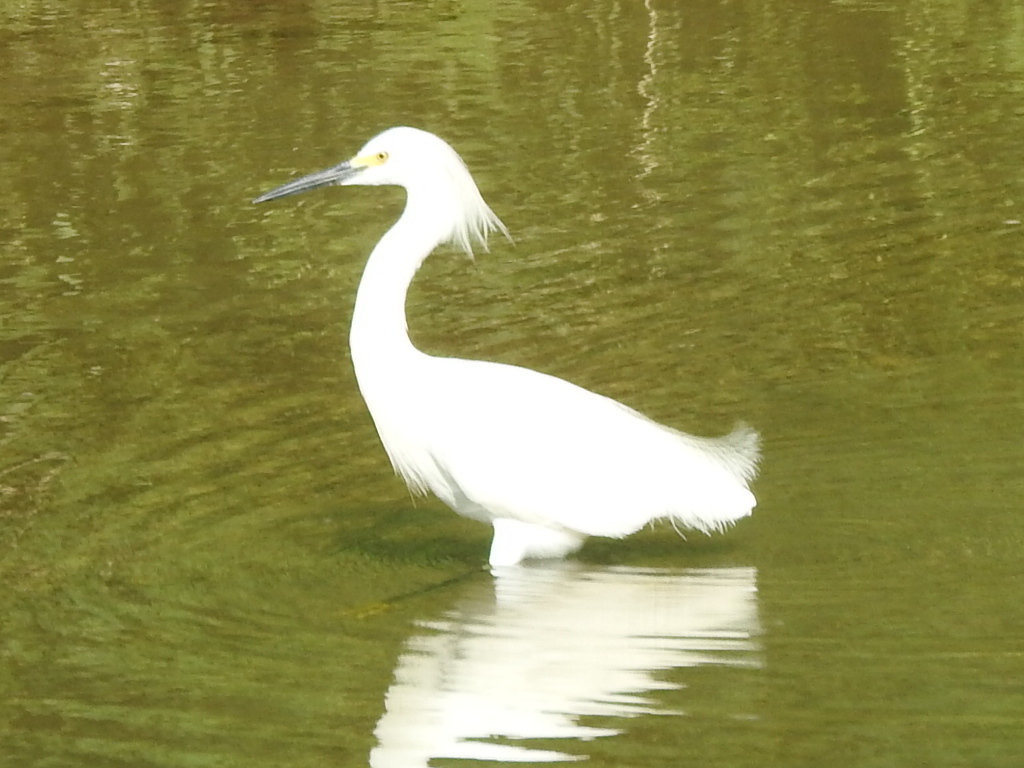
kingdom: Animalia
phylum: Chordata
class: Aves
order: Pelecaniformes
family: Ardeidae
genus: Egretta
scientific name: Egretta thula
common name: Snowy egret
